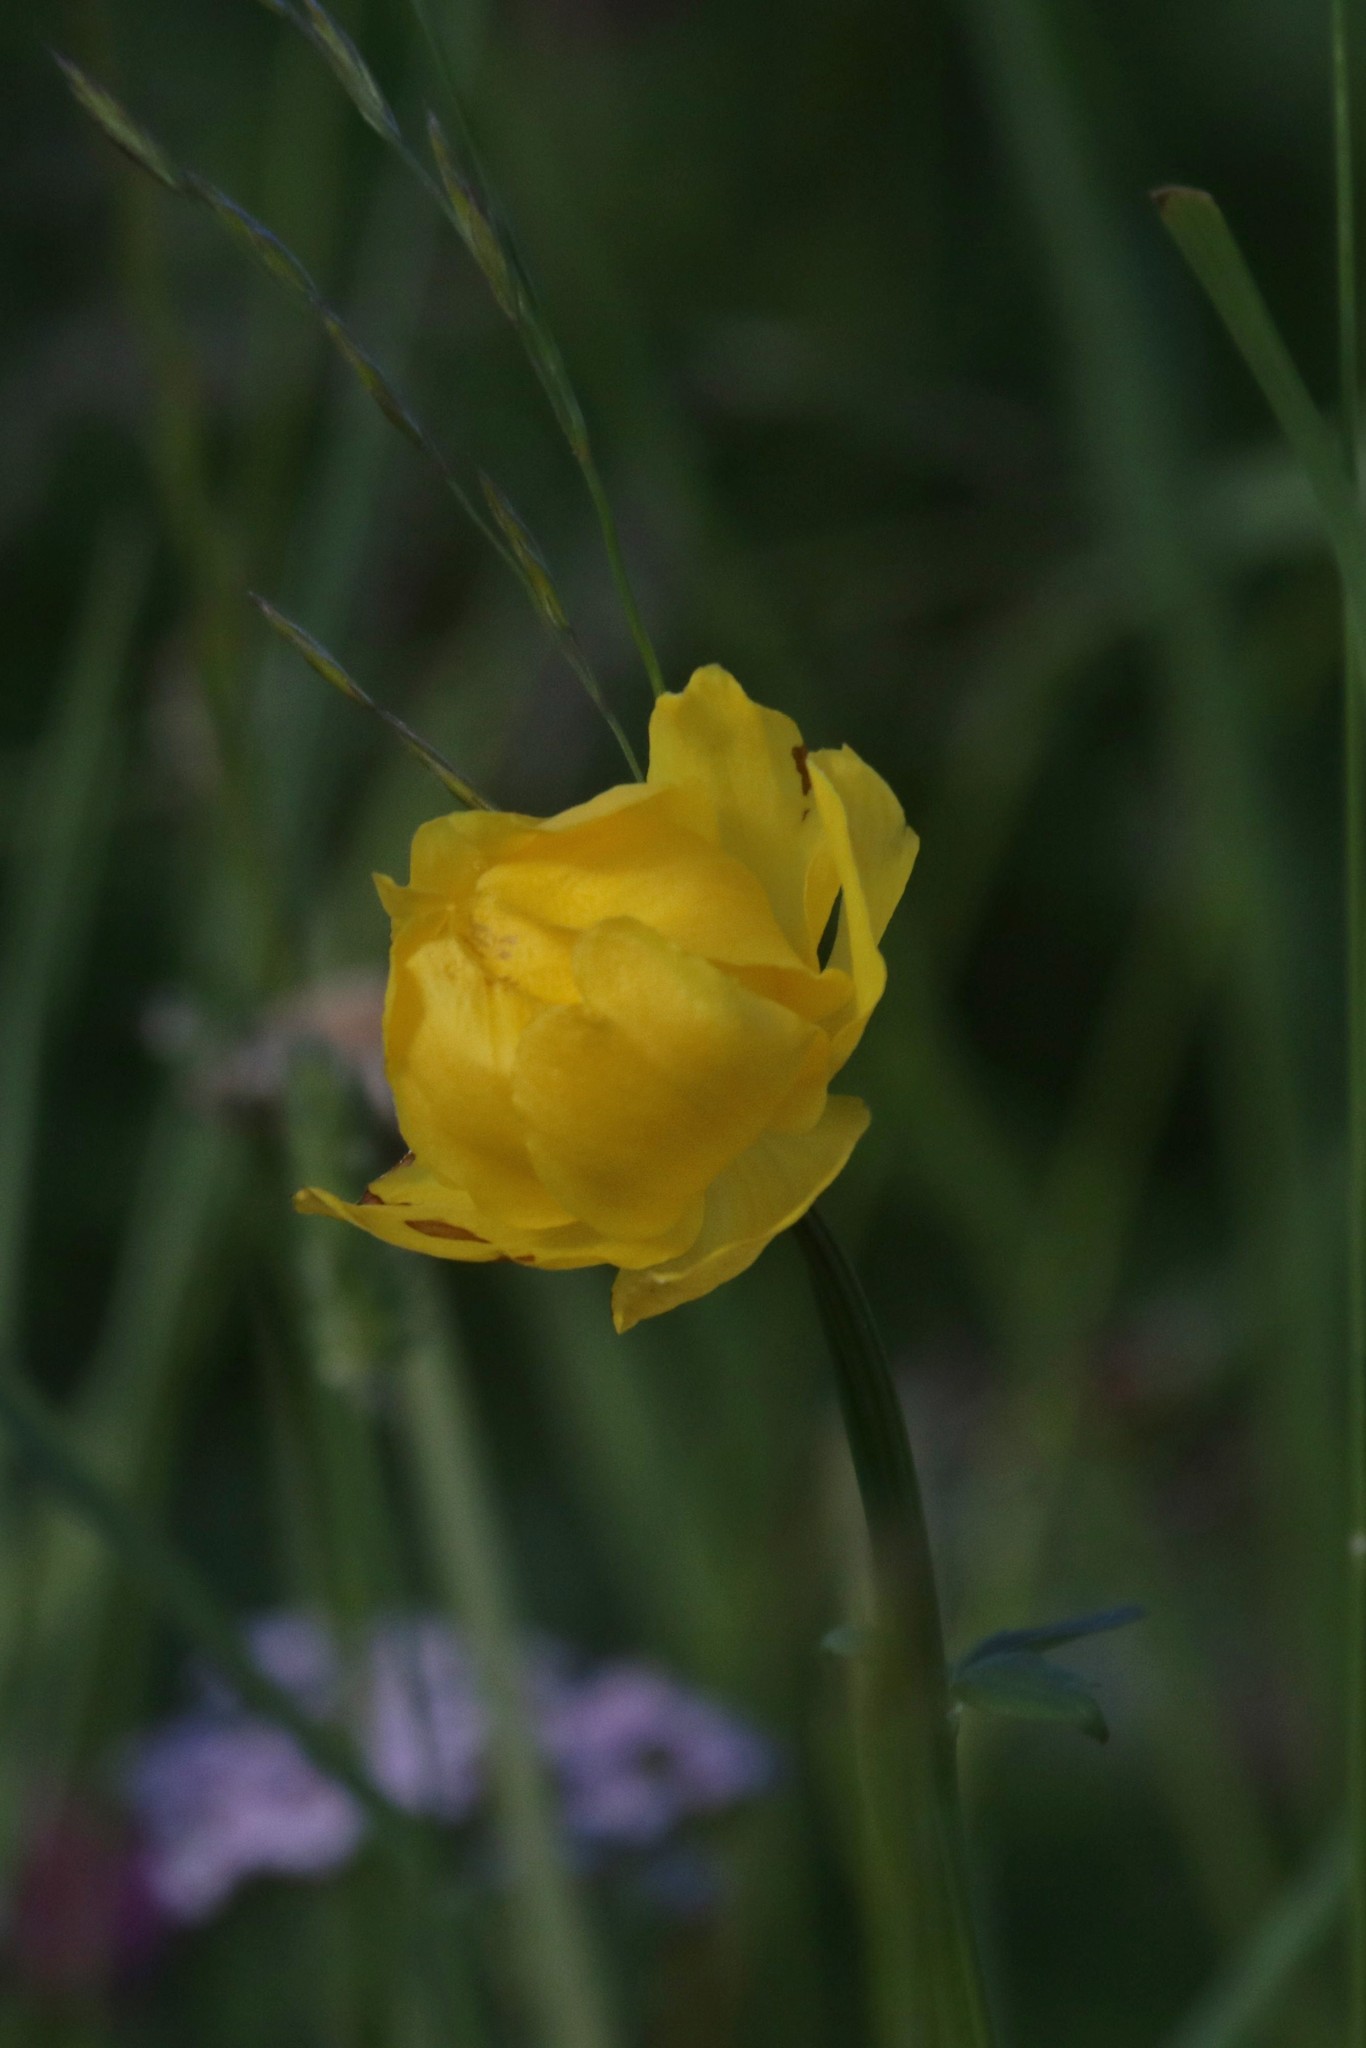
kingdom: Plantae
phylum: Tracheophyta
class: Magnoliopsida
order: Ranunculales
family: Ranunculaceae
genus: Trollius
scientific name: Trollius europaeus
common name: European globeflower
